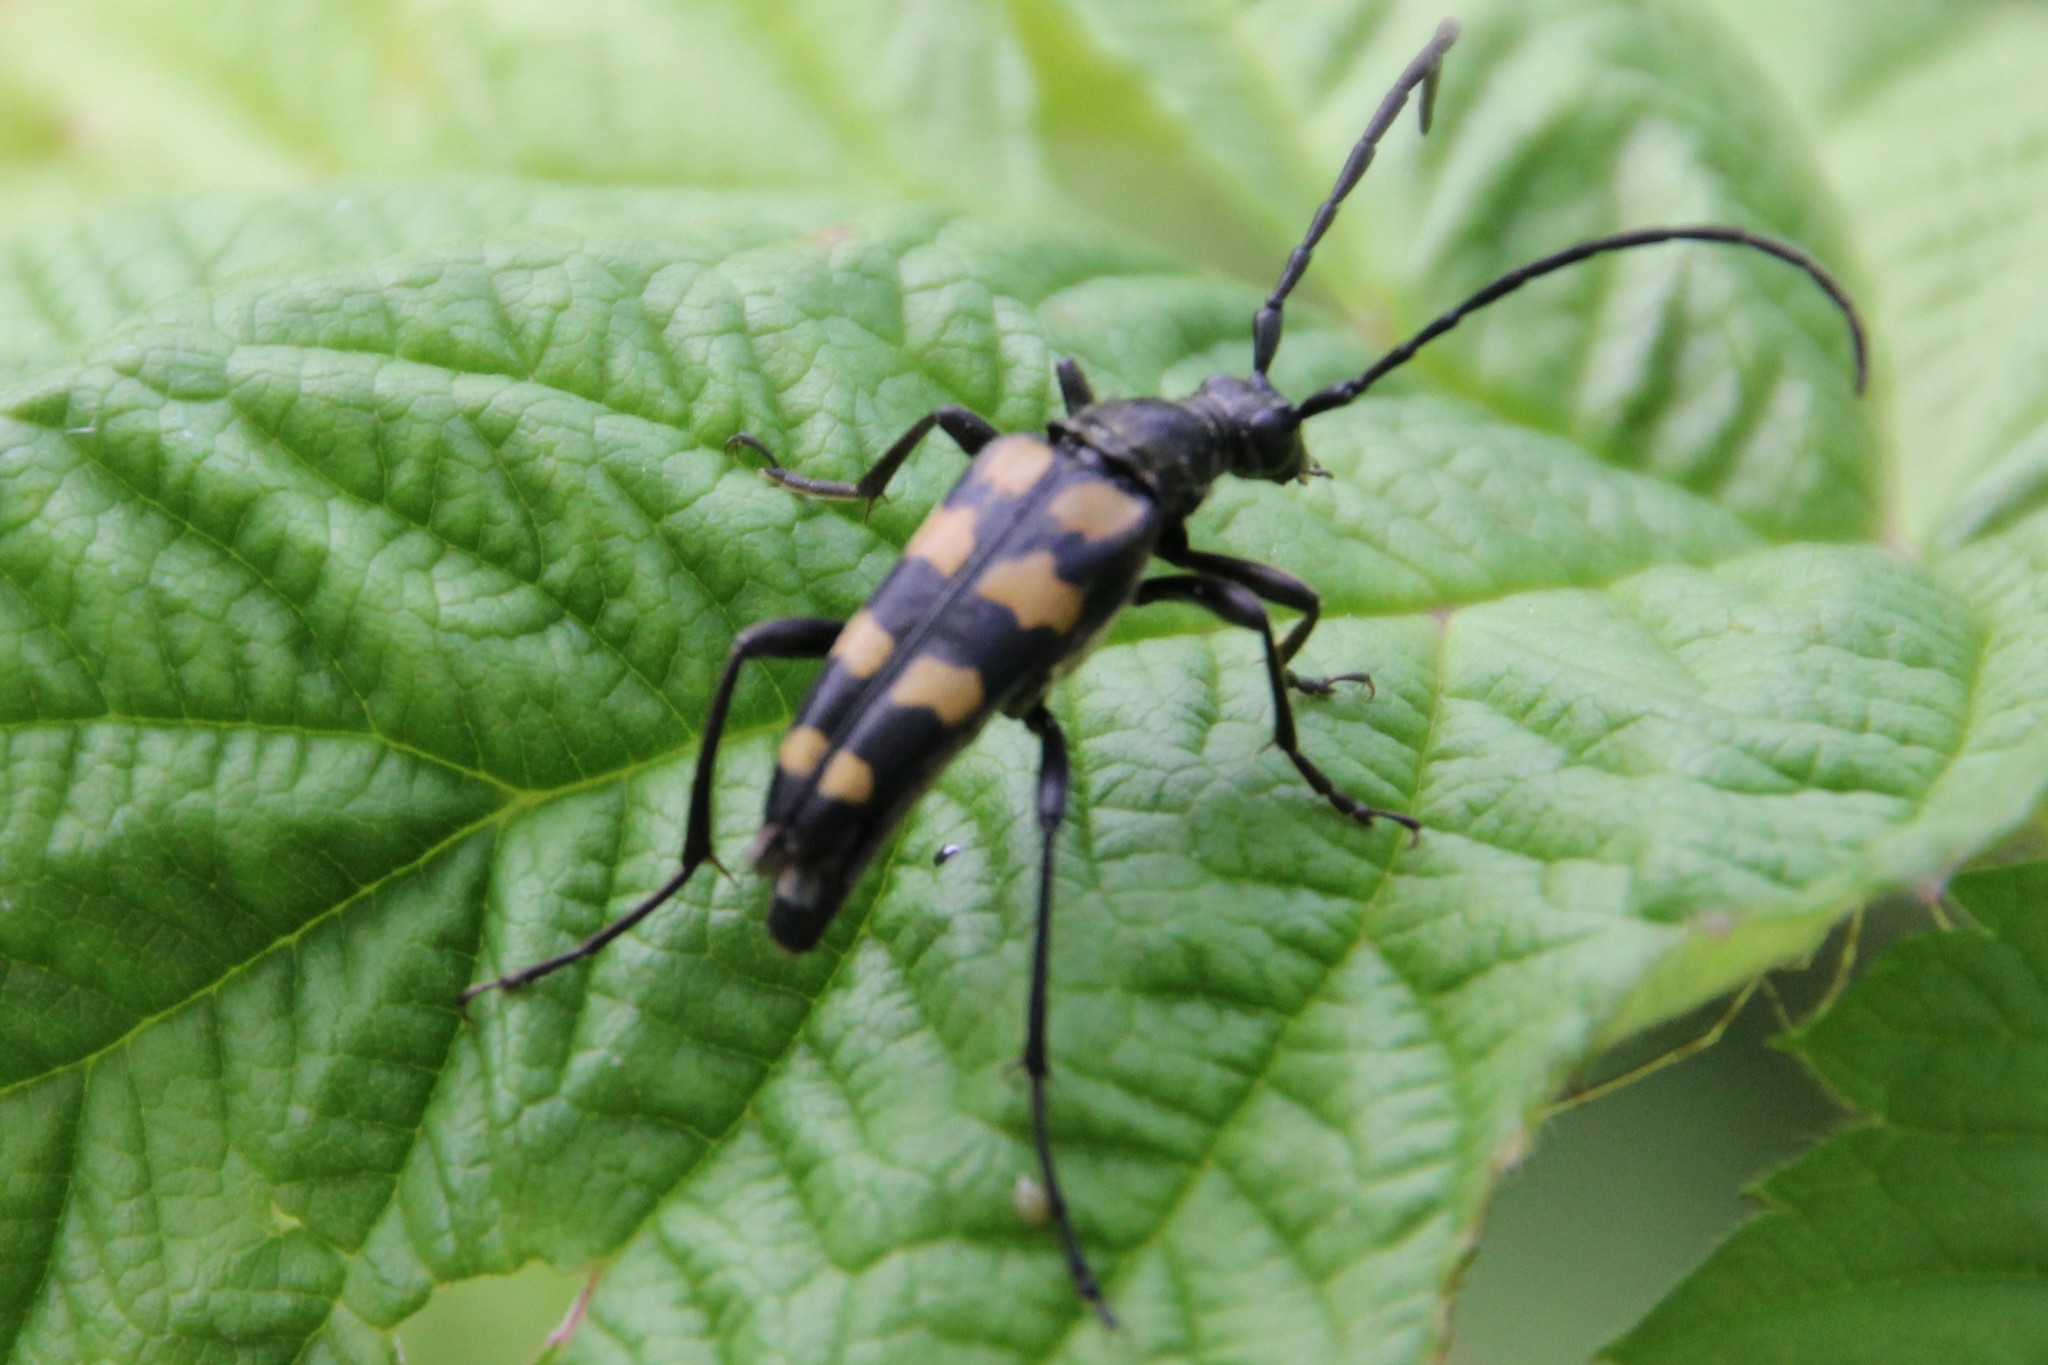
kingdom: Animalia
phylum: Arthropoda
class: Insecta
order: Coleoptera
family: Cerambycidae
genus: Leptura
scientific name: Leptura quadrifasciata
